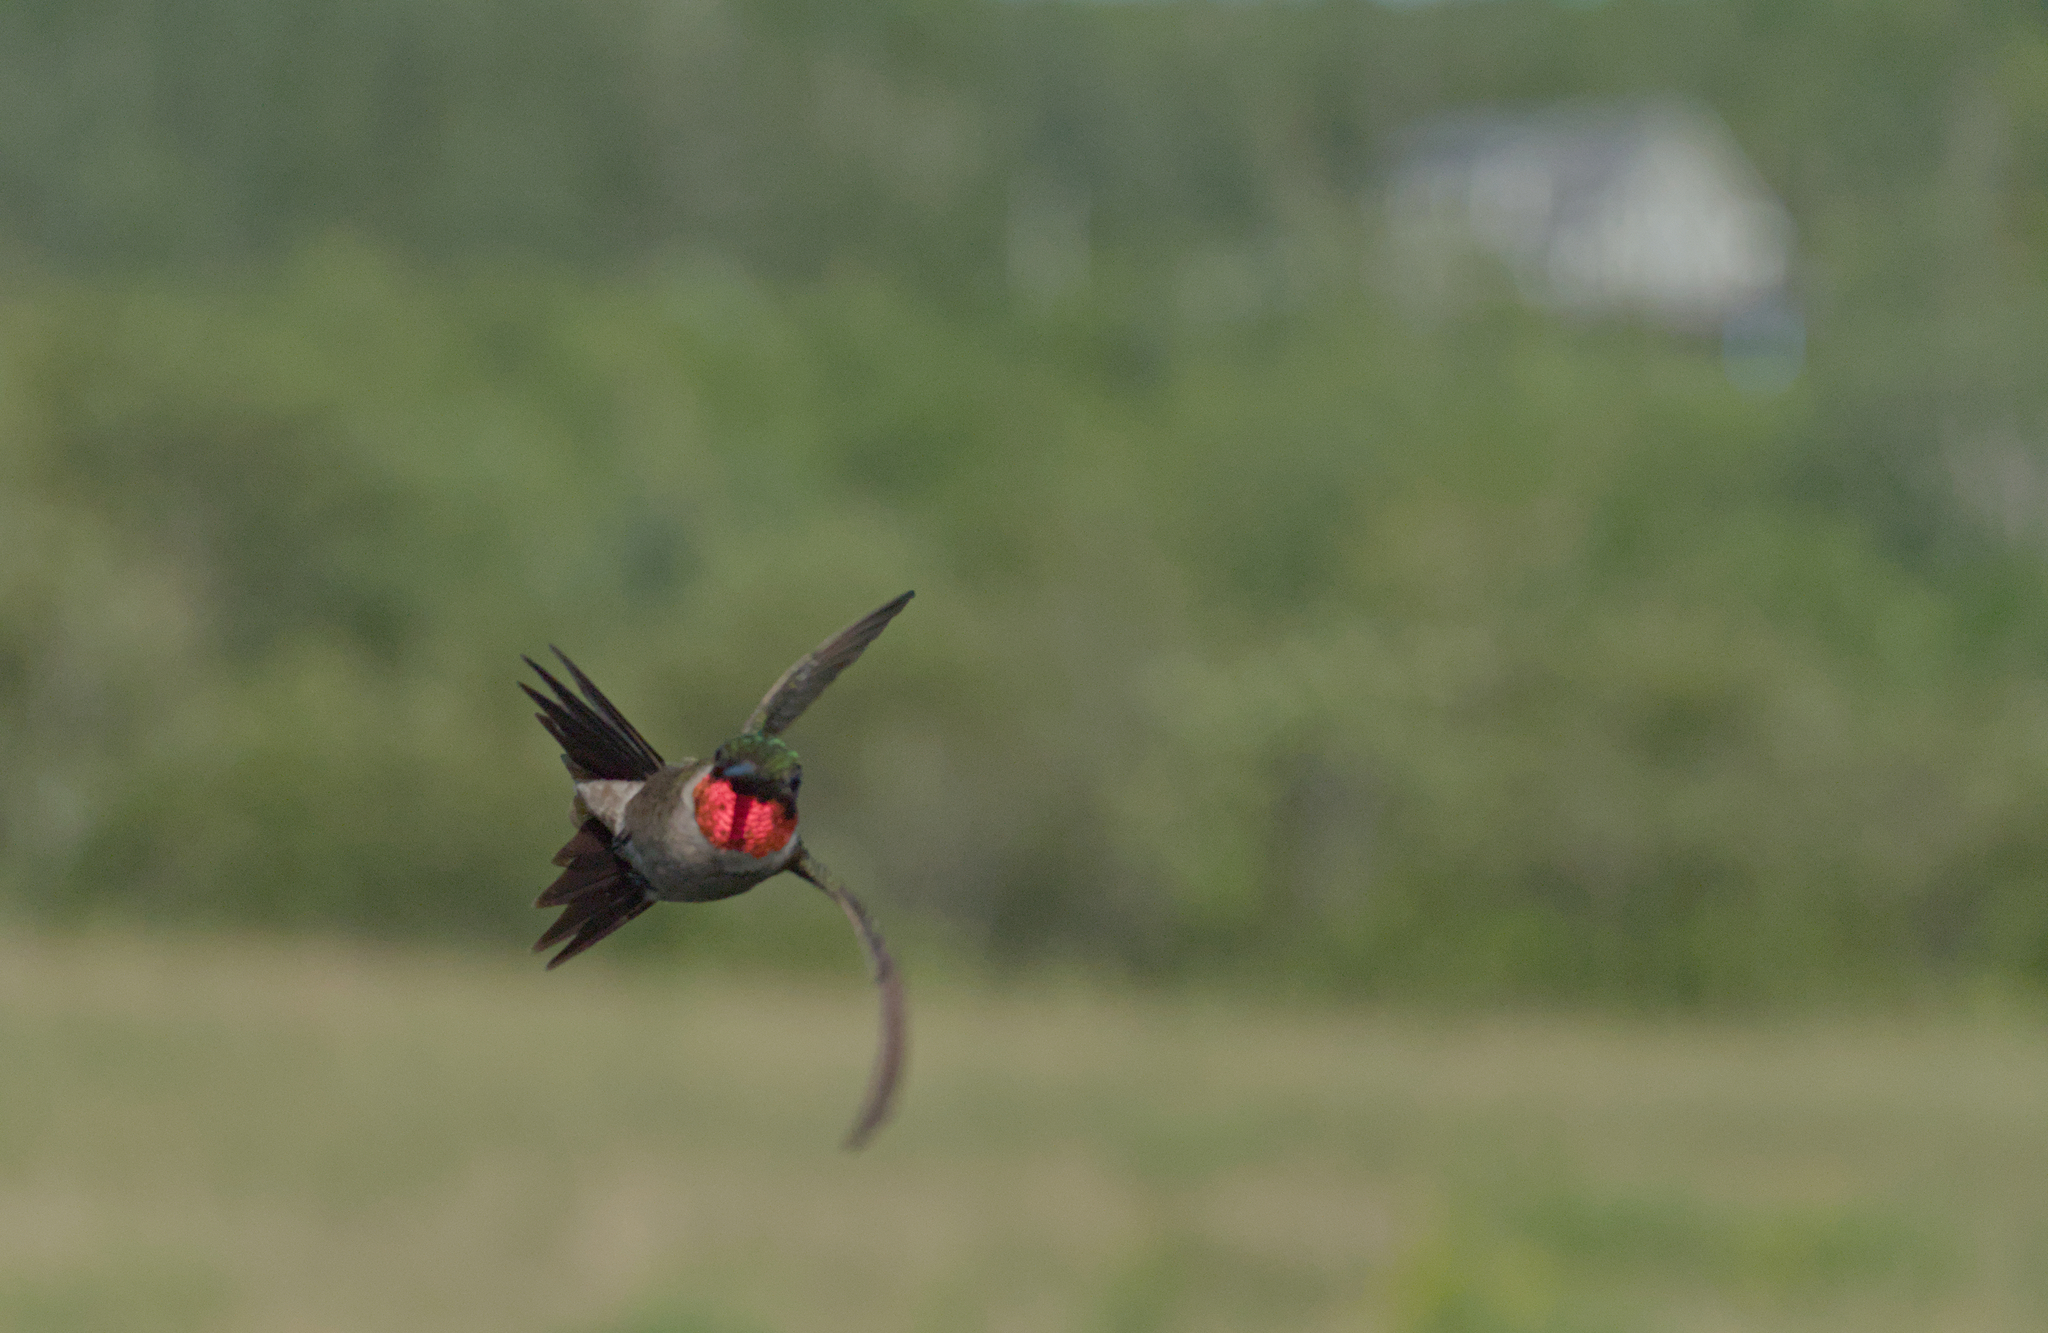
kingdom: Animalia
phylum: Chordata
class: Aves
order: Apodiformes
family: Trochilidae
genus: Archilochus
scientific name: Archilochus colubris
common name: Ruby-throated hummingbird
